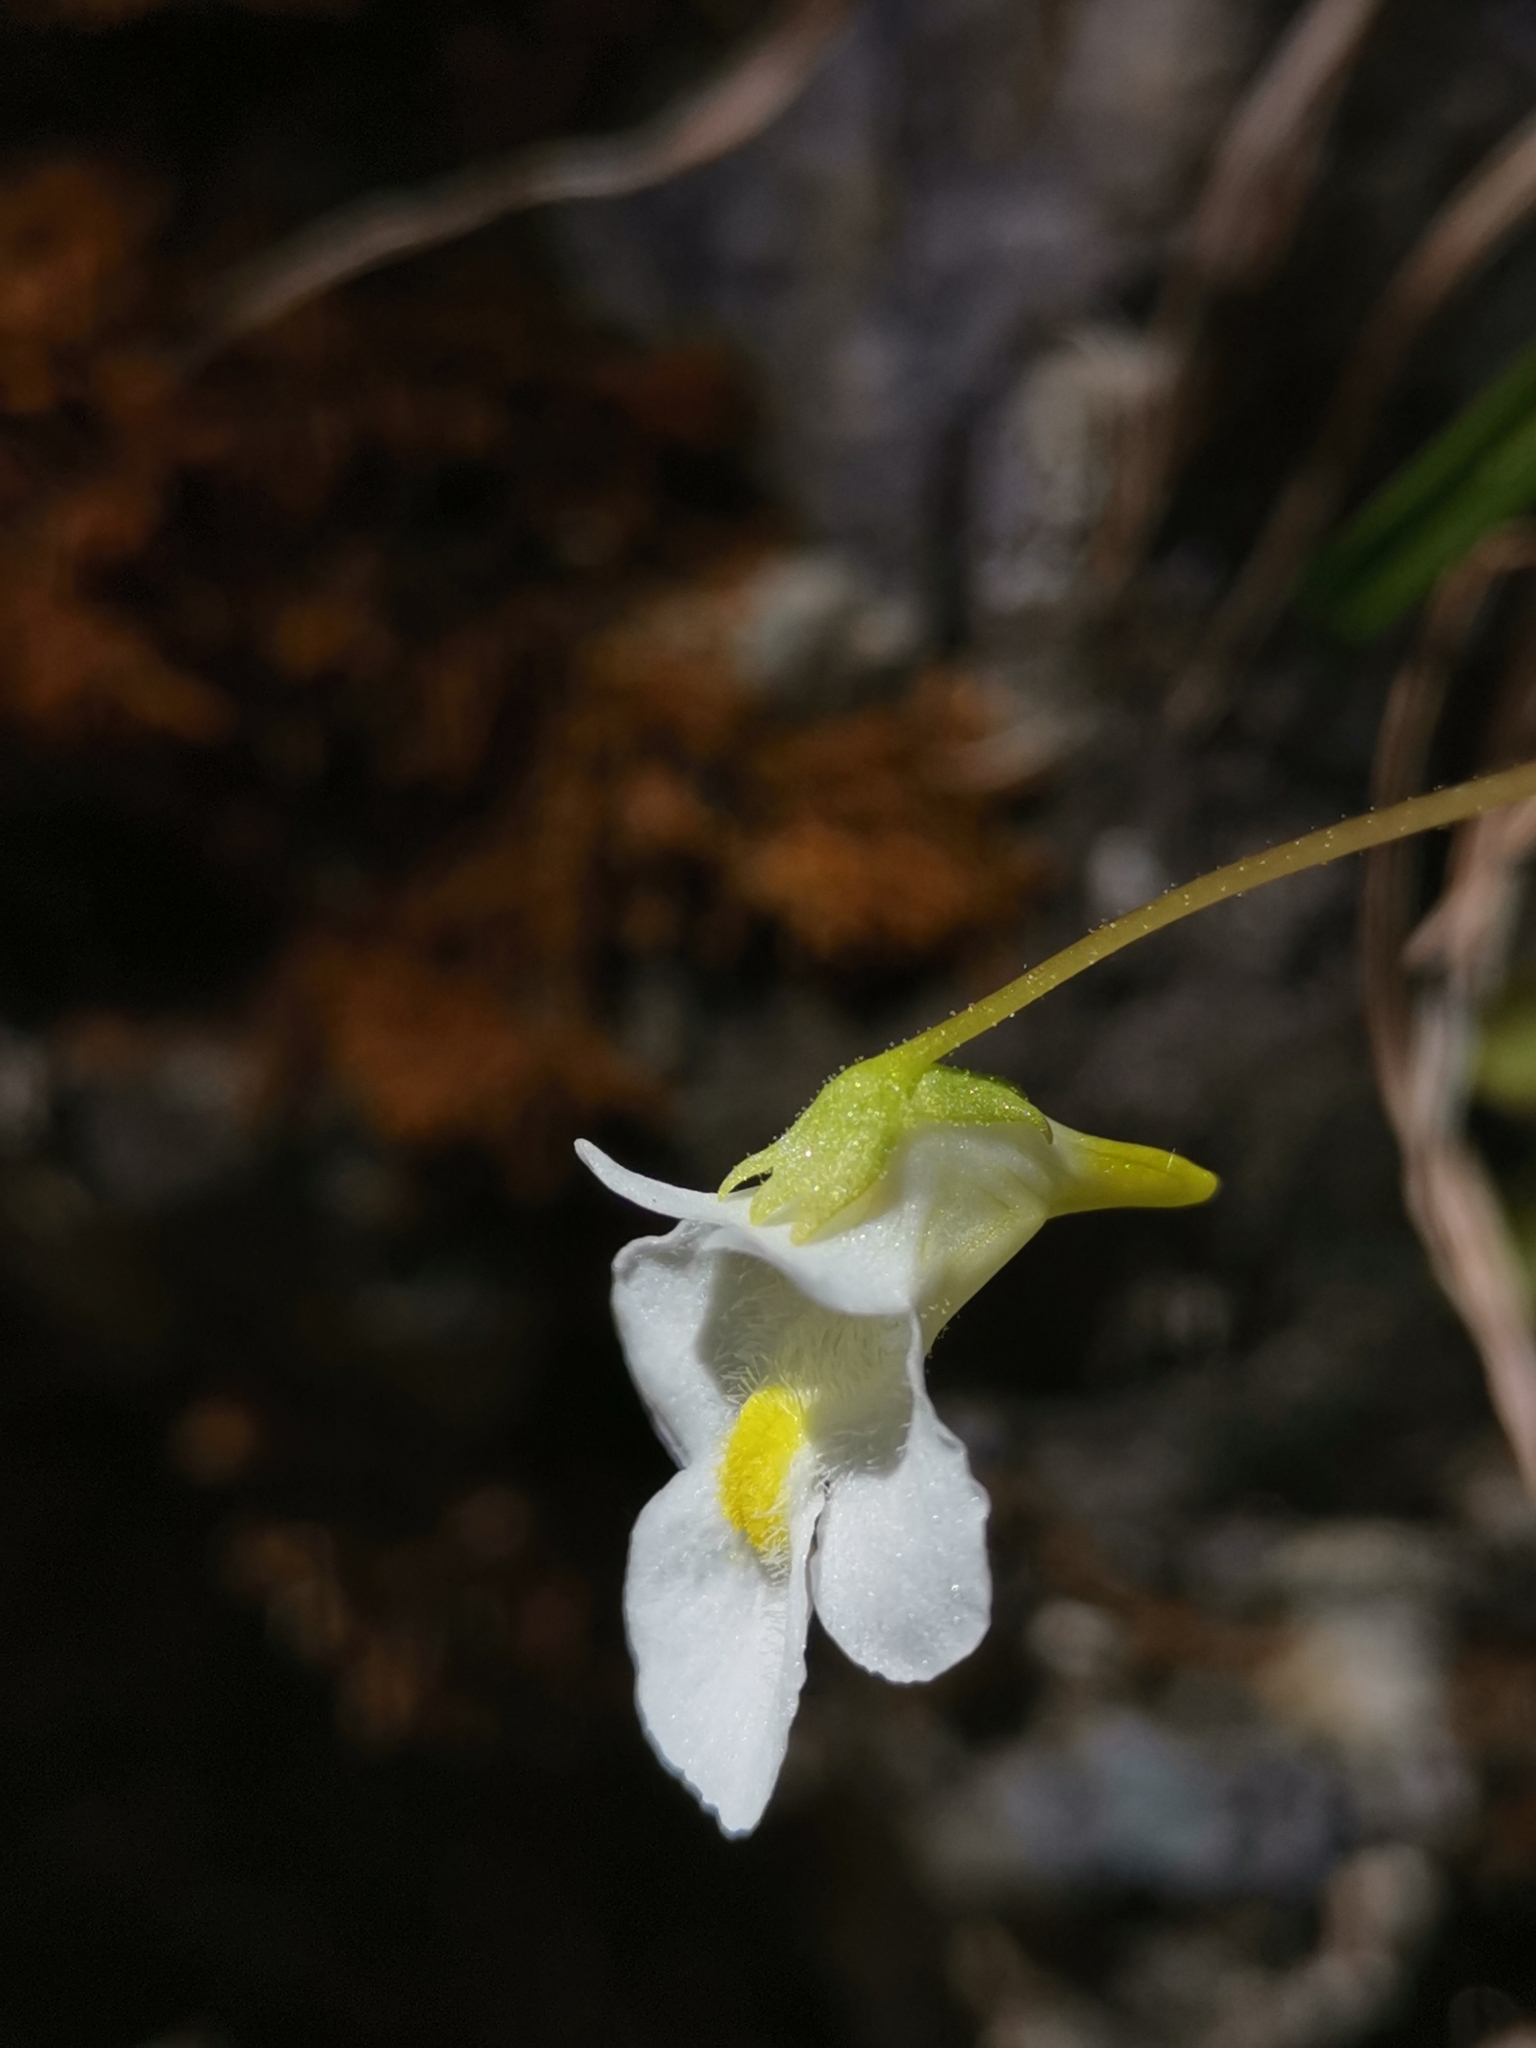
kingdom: Plantae
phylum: Tracheophyta
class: Magnoliopsida
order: Lamiales
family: Lentibulariaceae
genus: Pinguicula
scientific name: Pinguicula alpina
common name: Alpine butterwort
